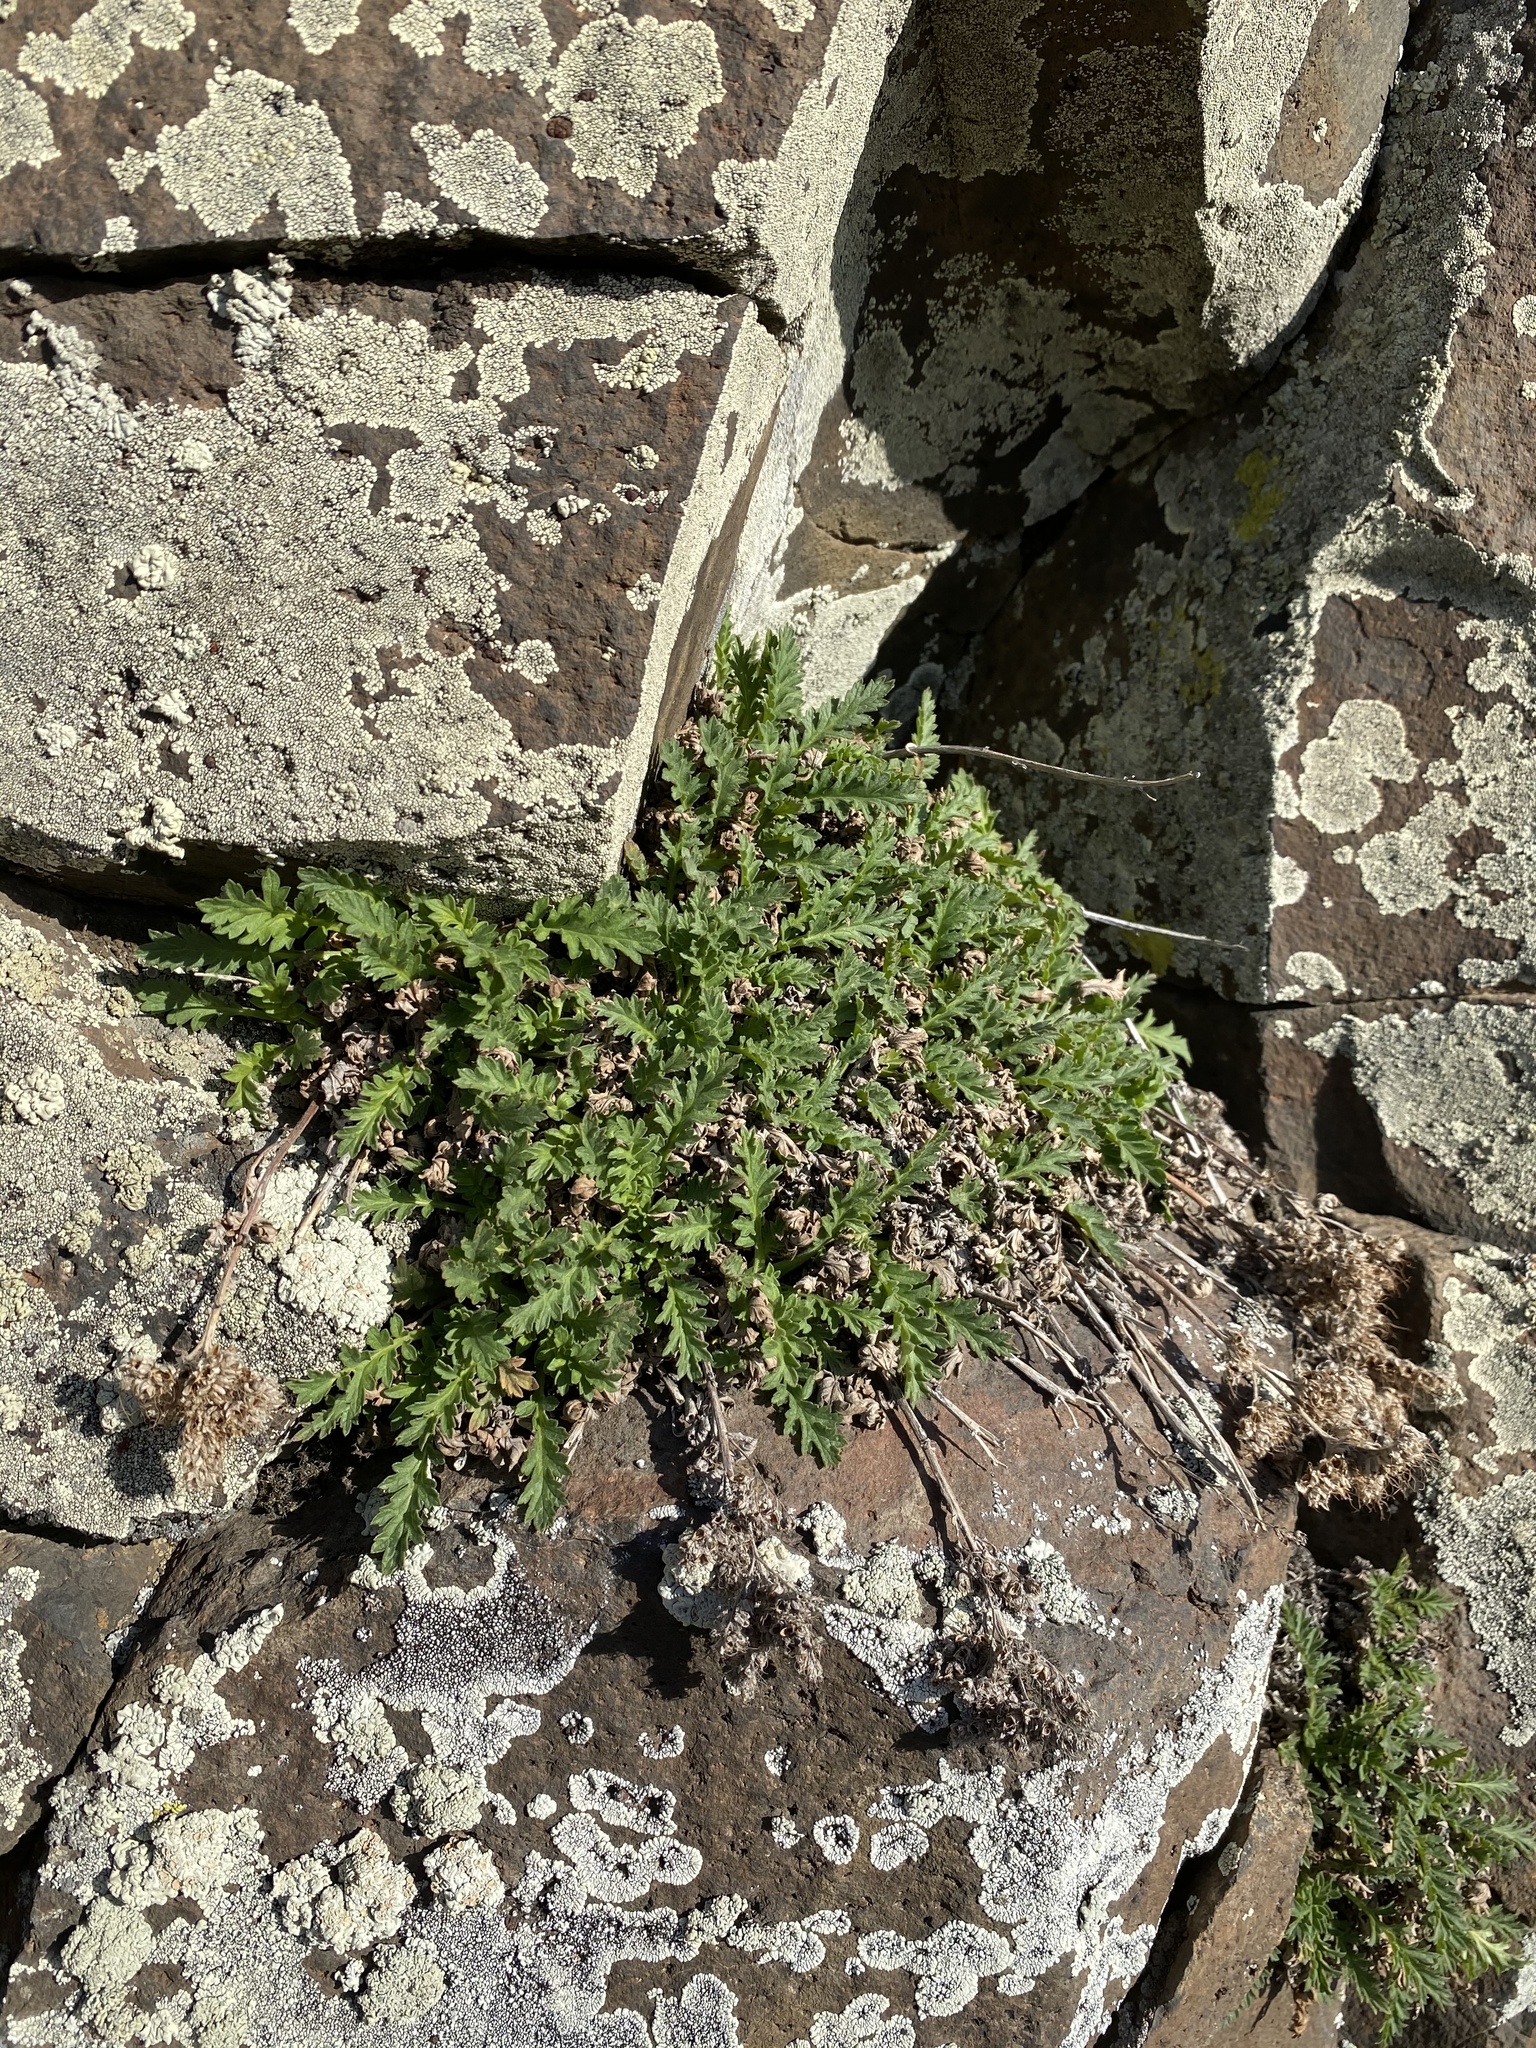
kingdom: Plantae
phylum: Tracheophyta
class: Magnoliopsida
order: Boraginales
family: Hydrophyllaceae
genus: Phacelia
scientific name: Phacelia lenta
